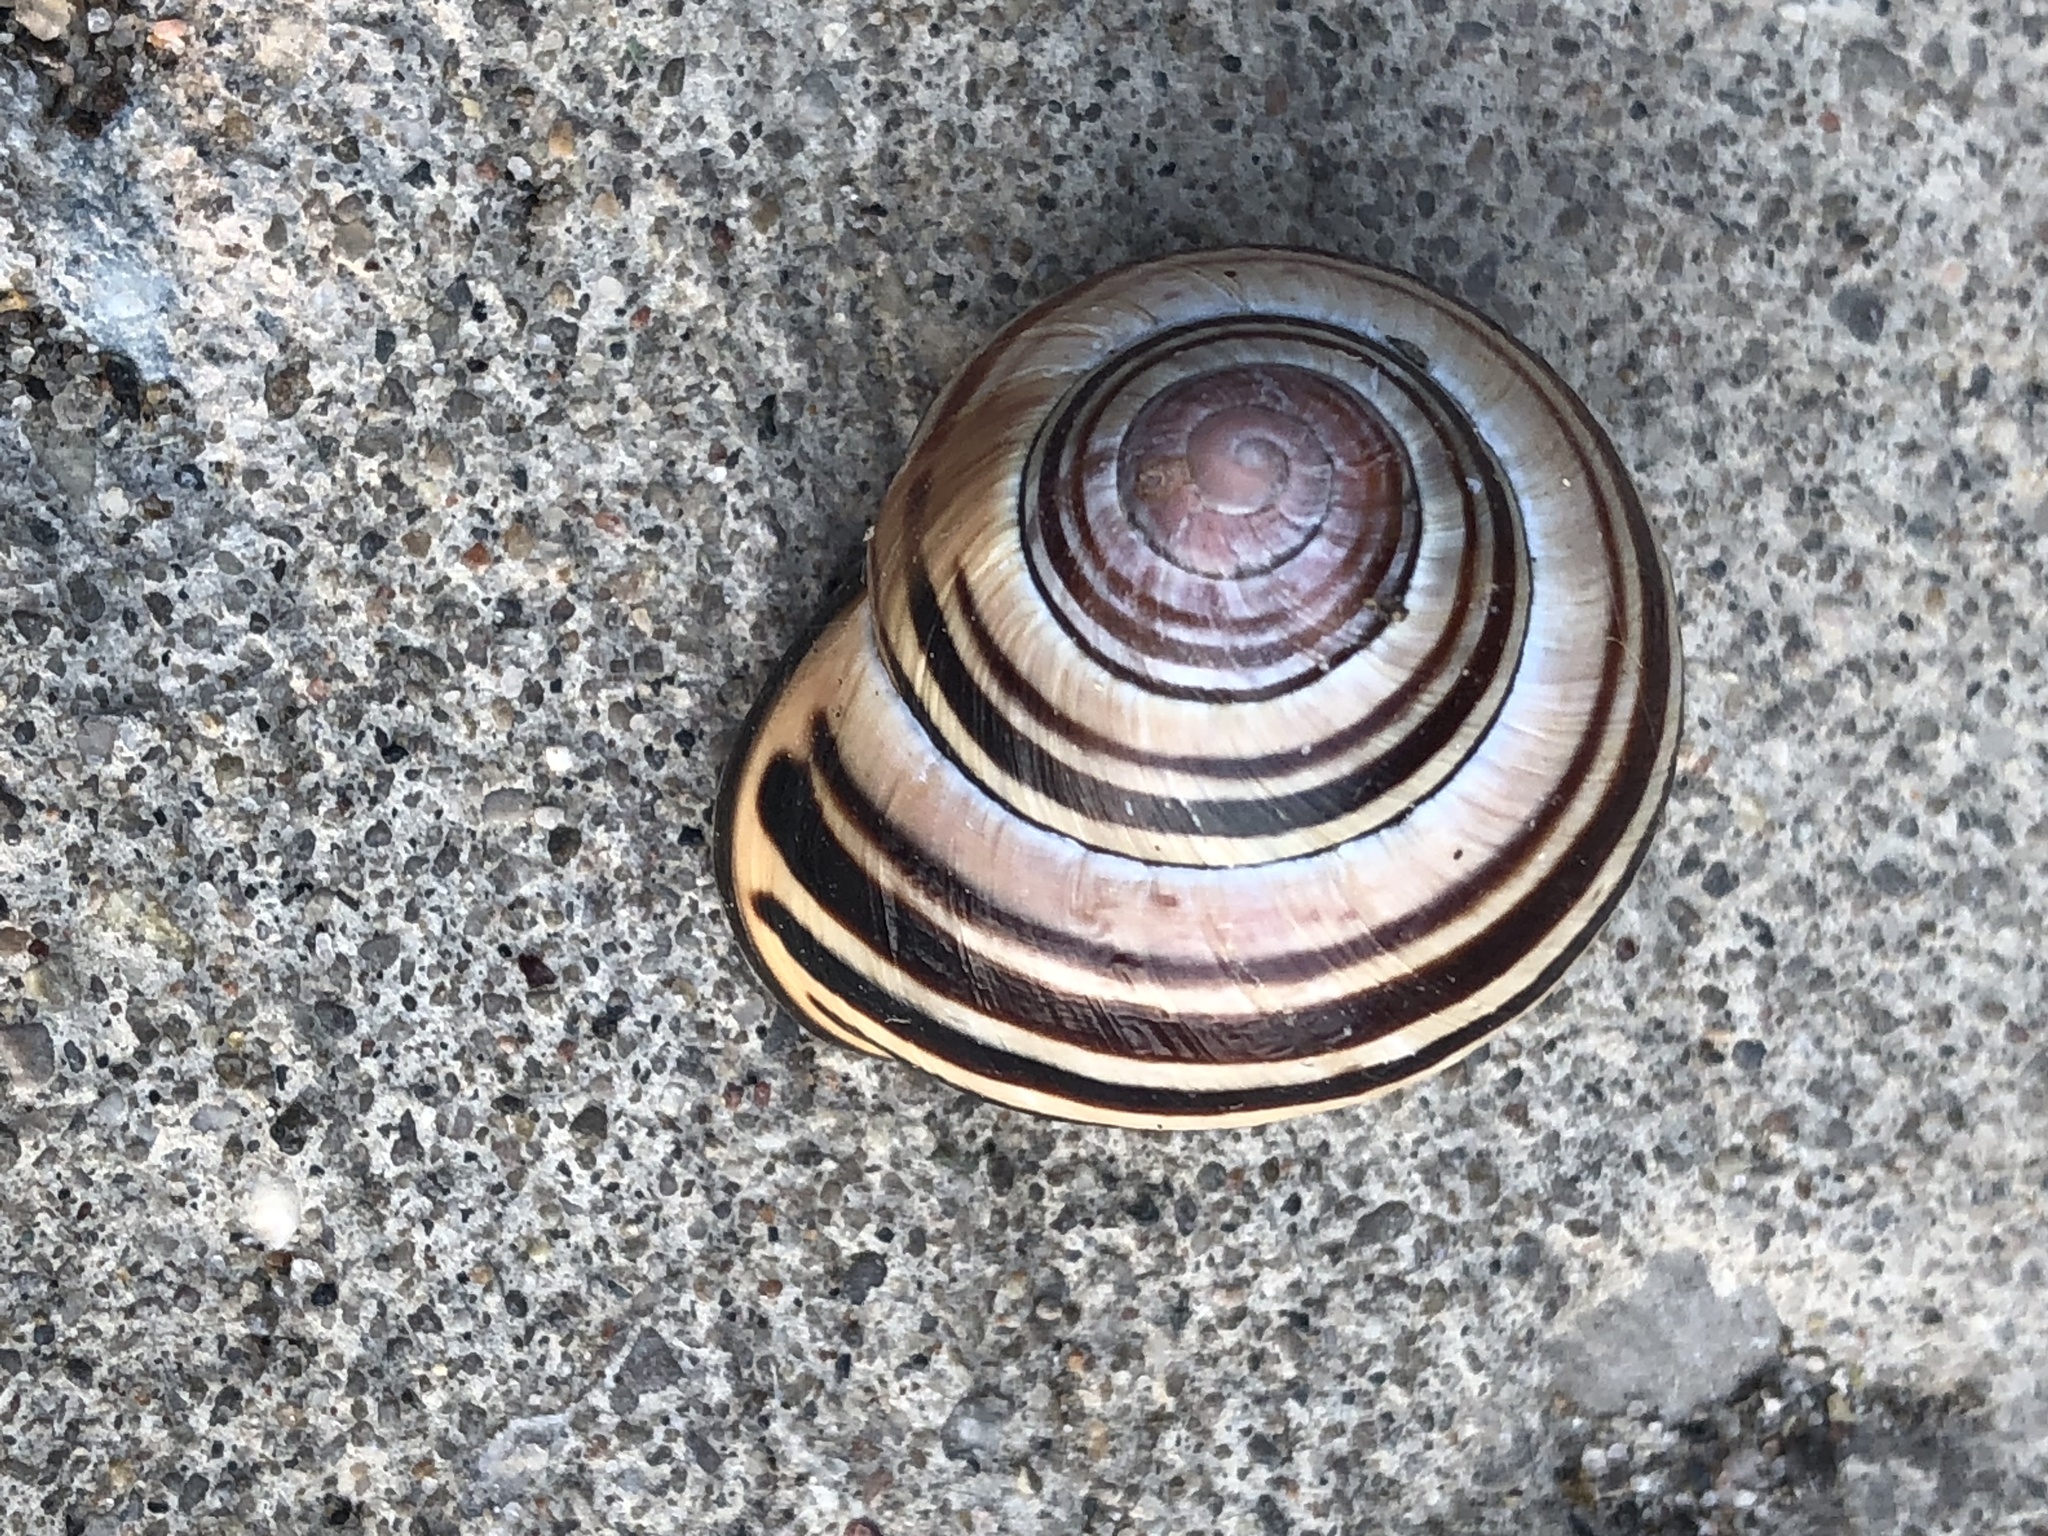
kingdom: Animalia
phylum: Mollusca
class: Gastropoda
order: Stylommatophora
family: Helicidae
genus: Cepaea
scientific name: Cepaea nemoralis
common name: Grovesnail
